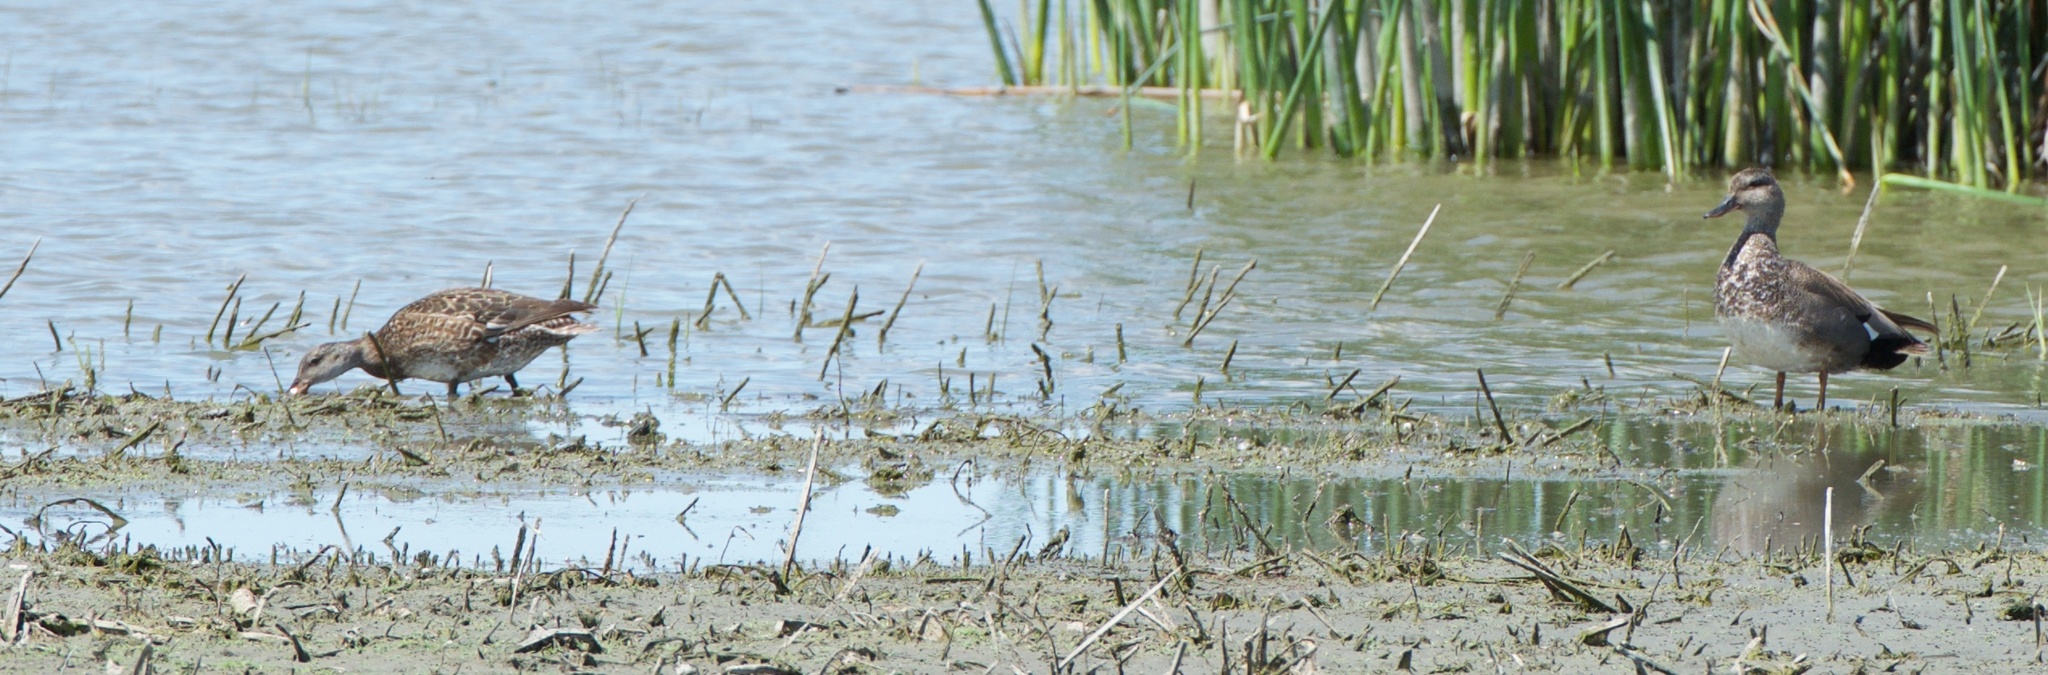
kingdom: Animalia
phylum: Chordata
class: Aves
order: Anseriformes
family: Anatidae
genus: Mareca
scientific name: Mareca strepera
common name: Gadwall
